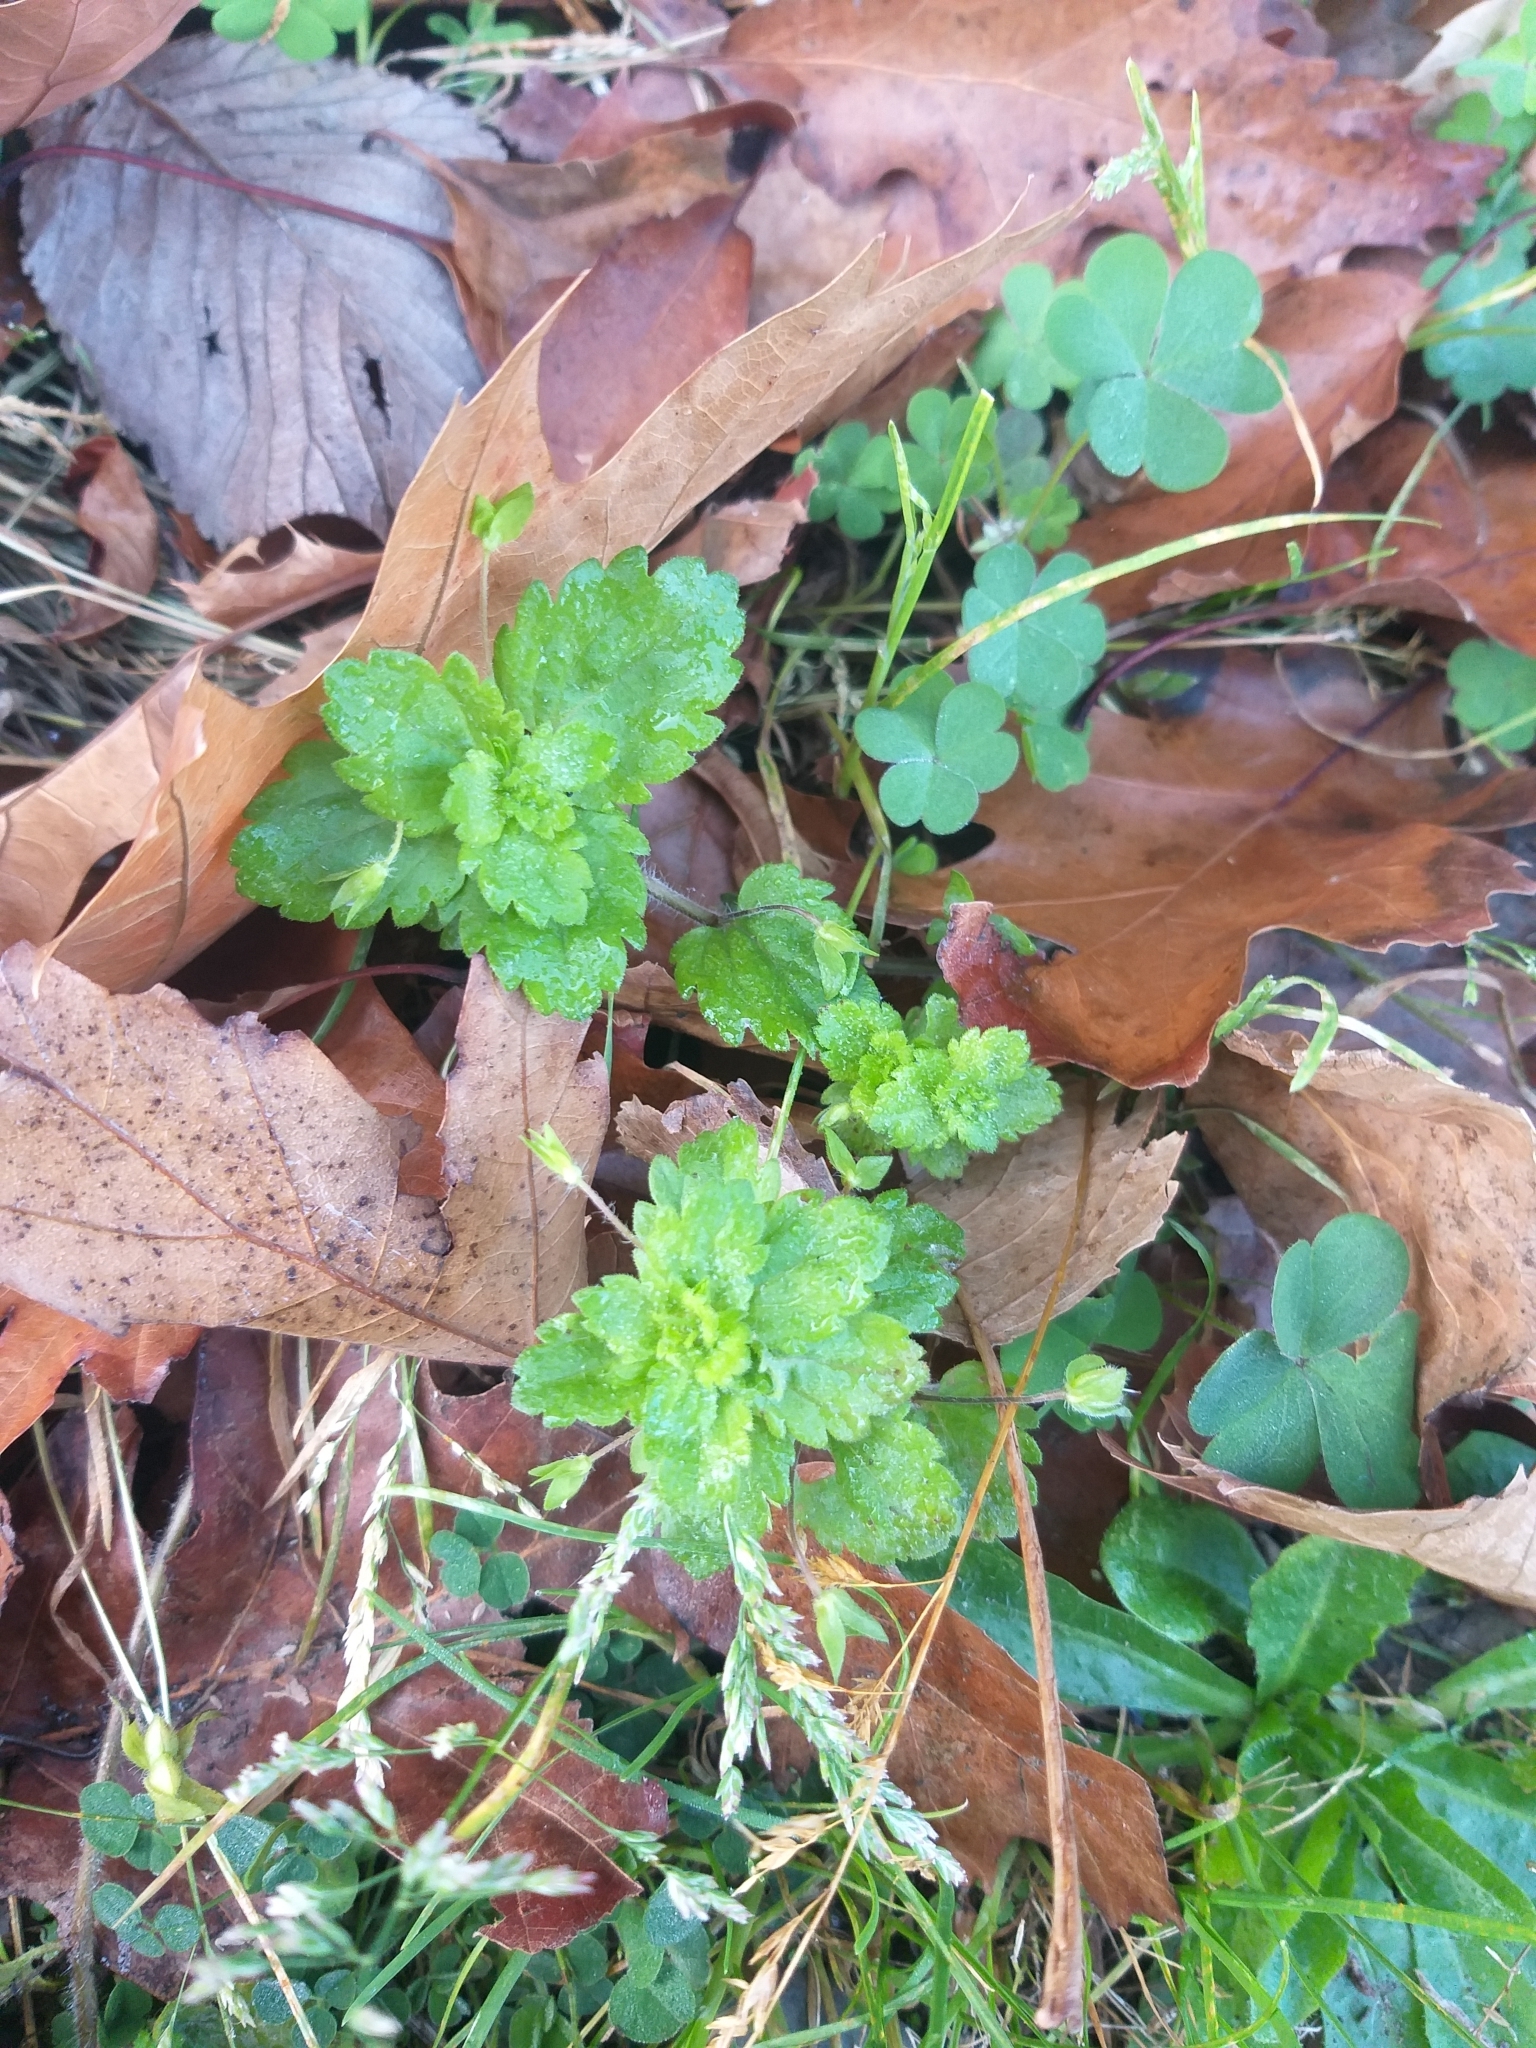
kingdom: Plantae
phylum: Tracheophyta
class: Magnoliopsida
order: Lamiales
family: Plantaginaceae
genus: Veronica
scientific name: Veronica persica
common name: Common field-speedwell
